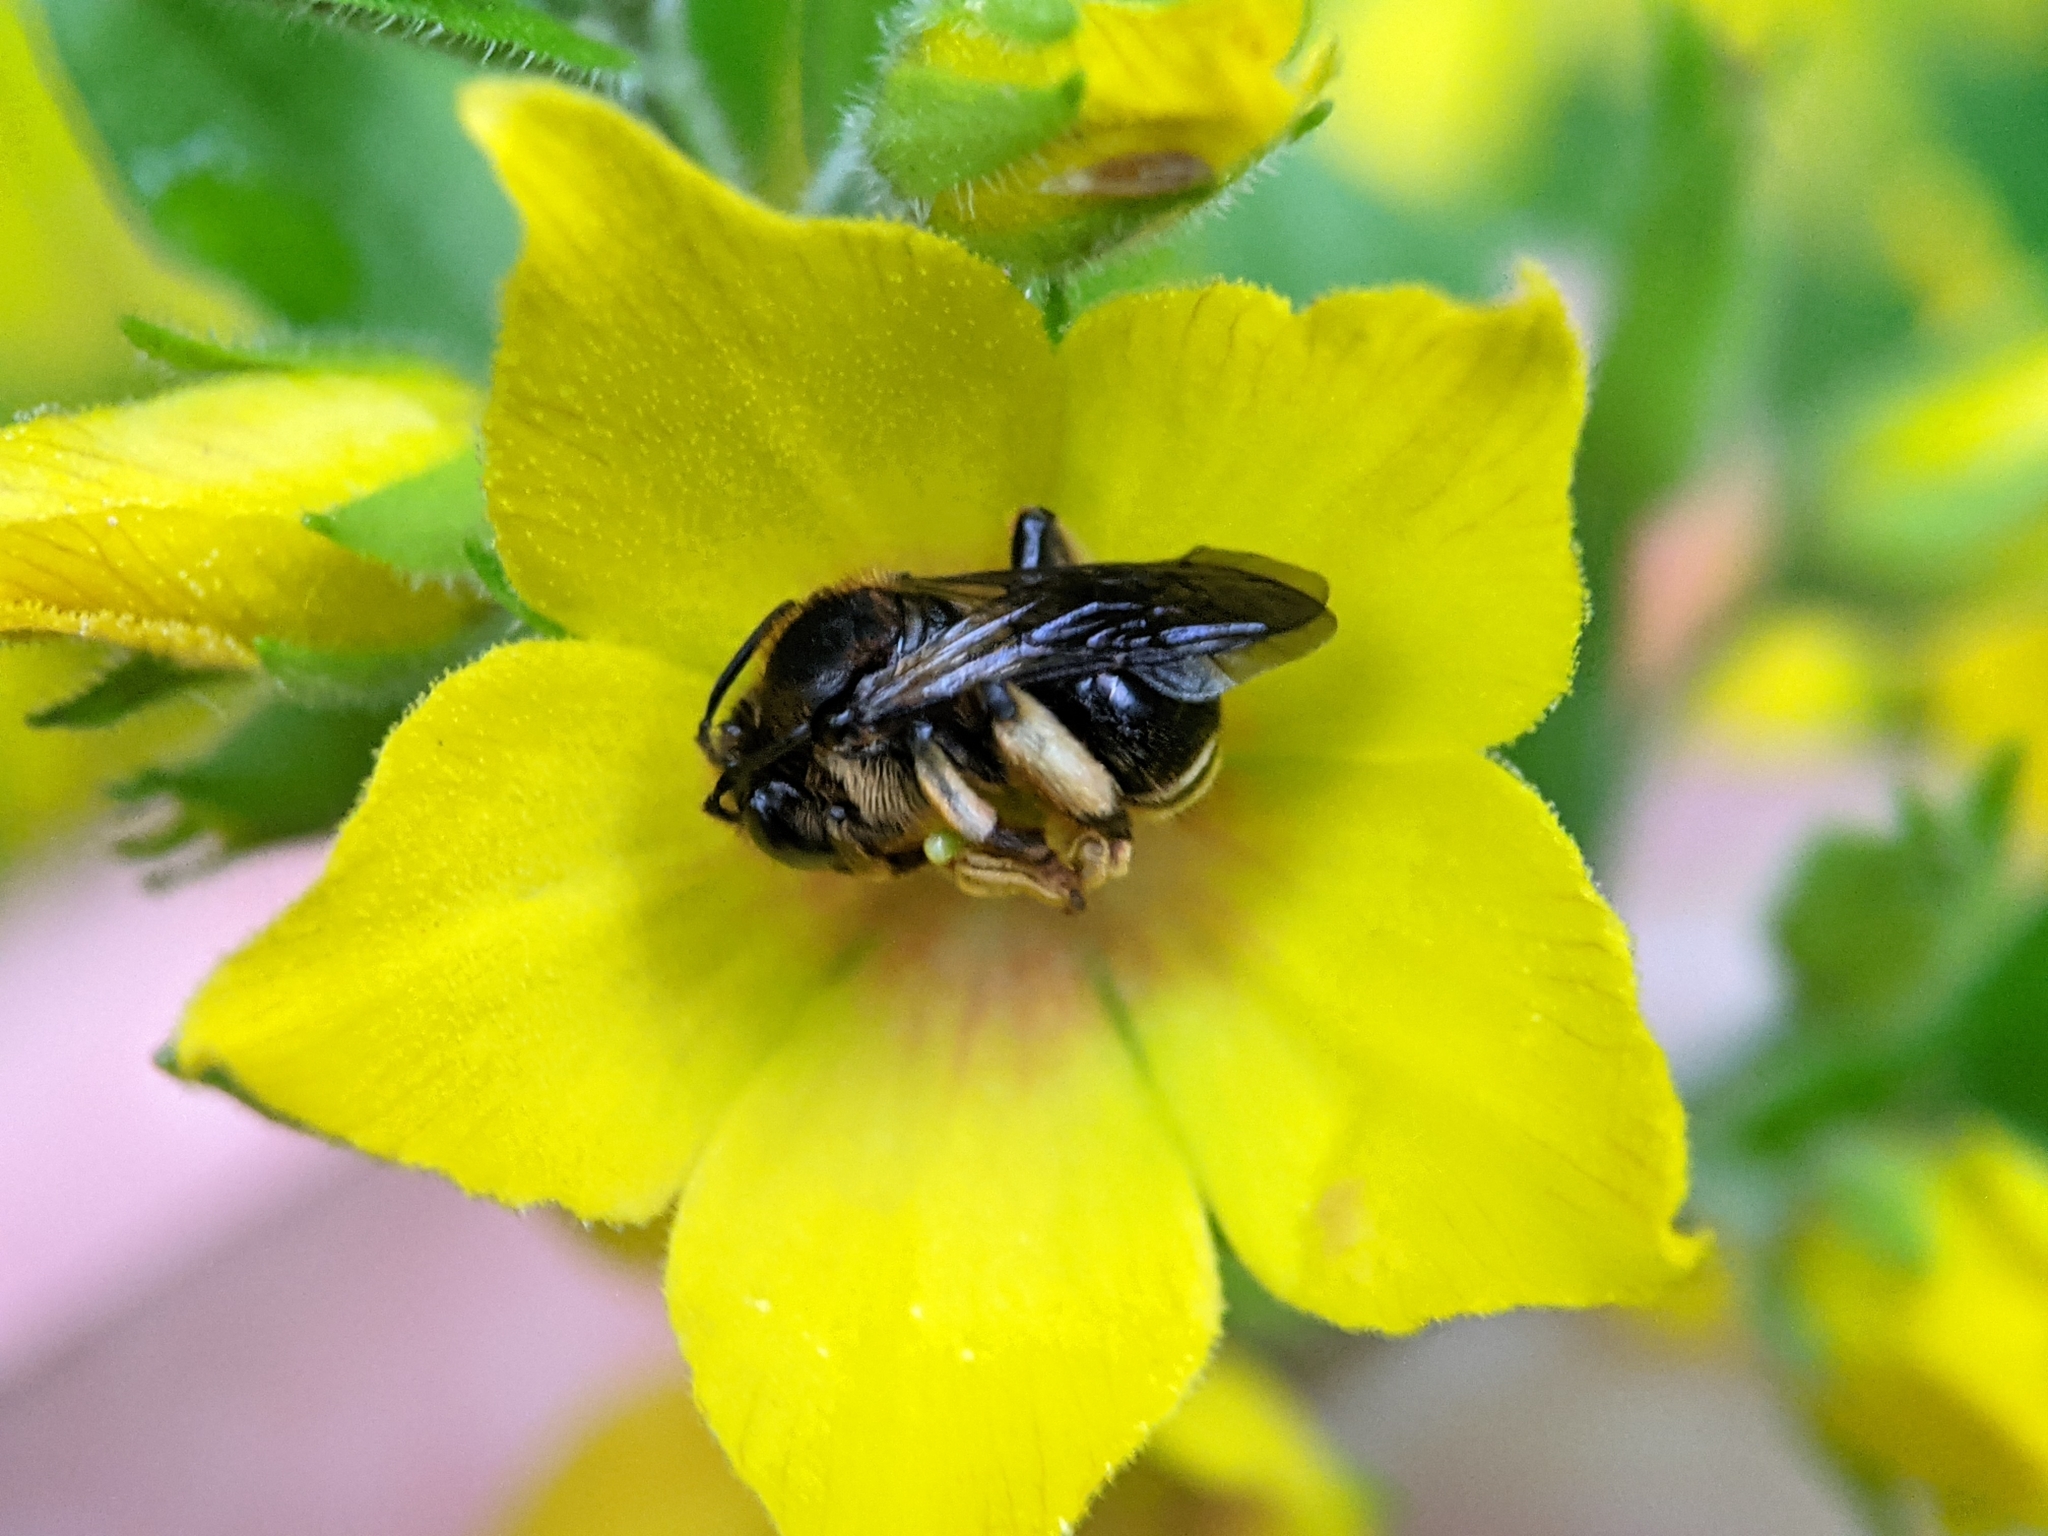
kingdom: Animalia
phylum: Arthropoda
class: Insecta
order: Hymenoptera
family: Melittidae
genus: Macropis
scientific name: Macropis fulvipes
